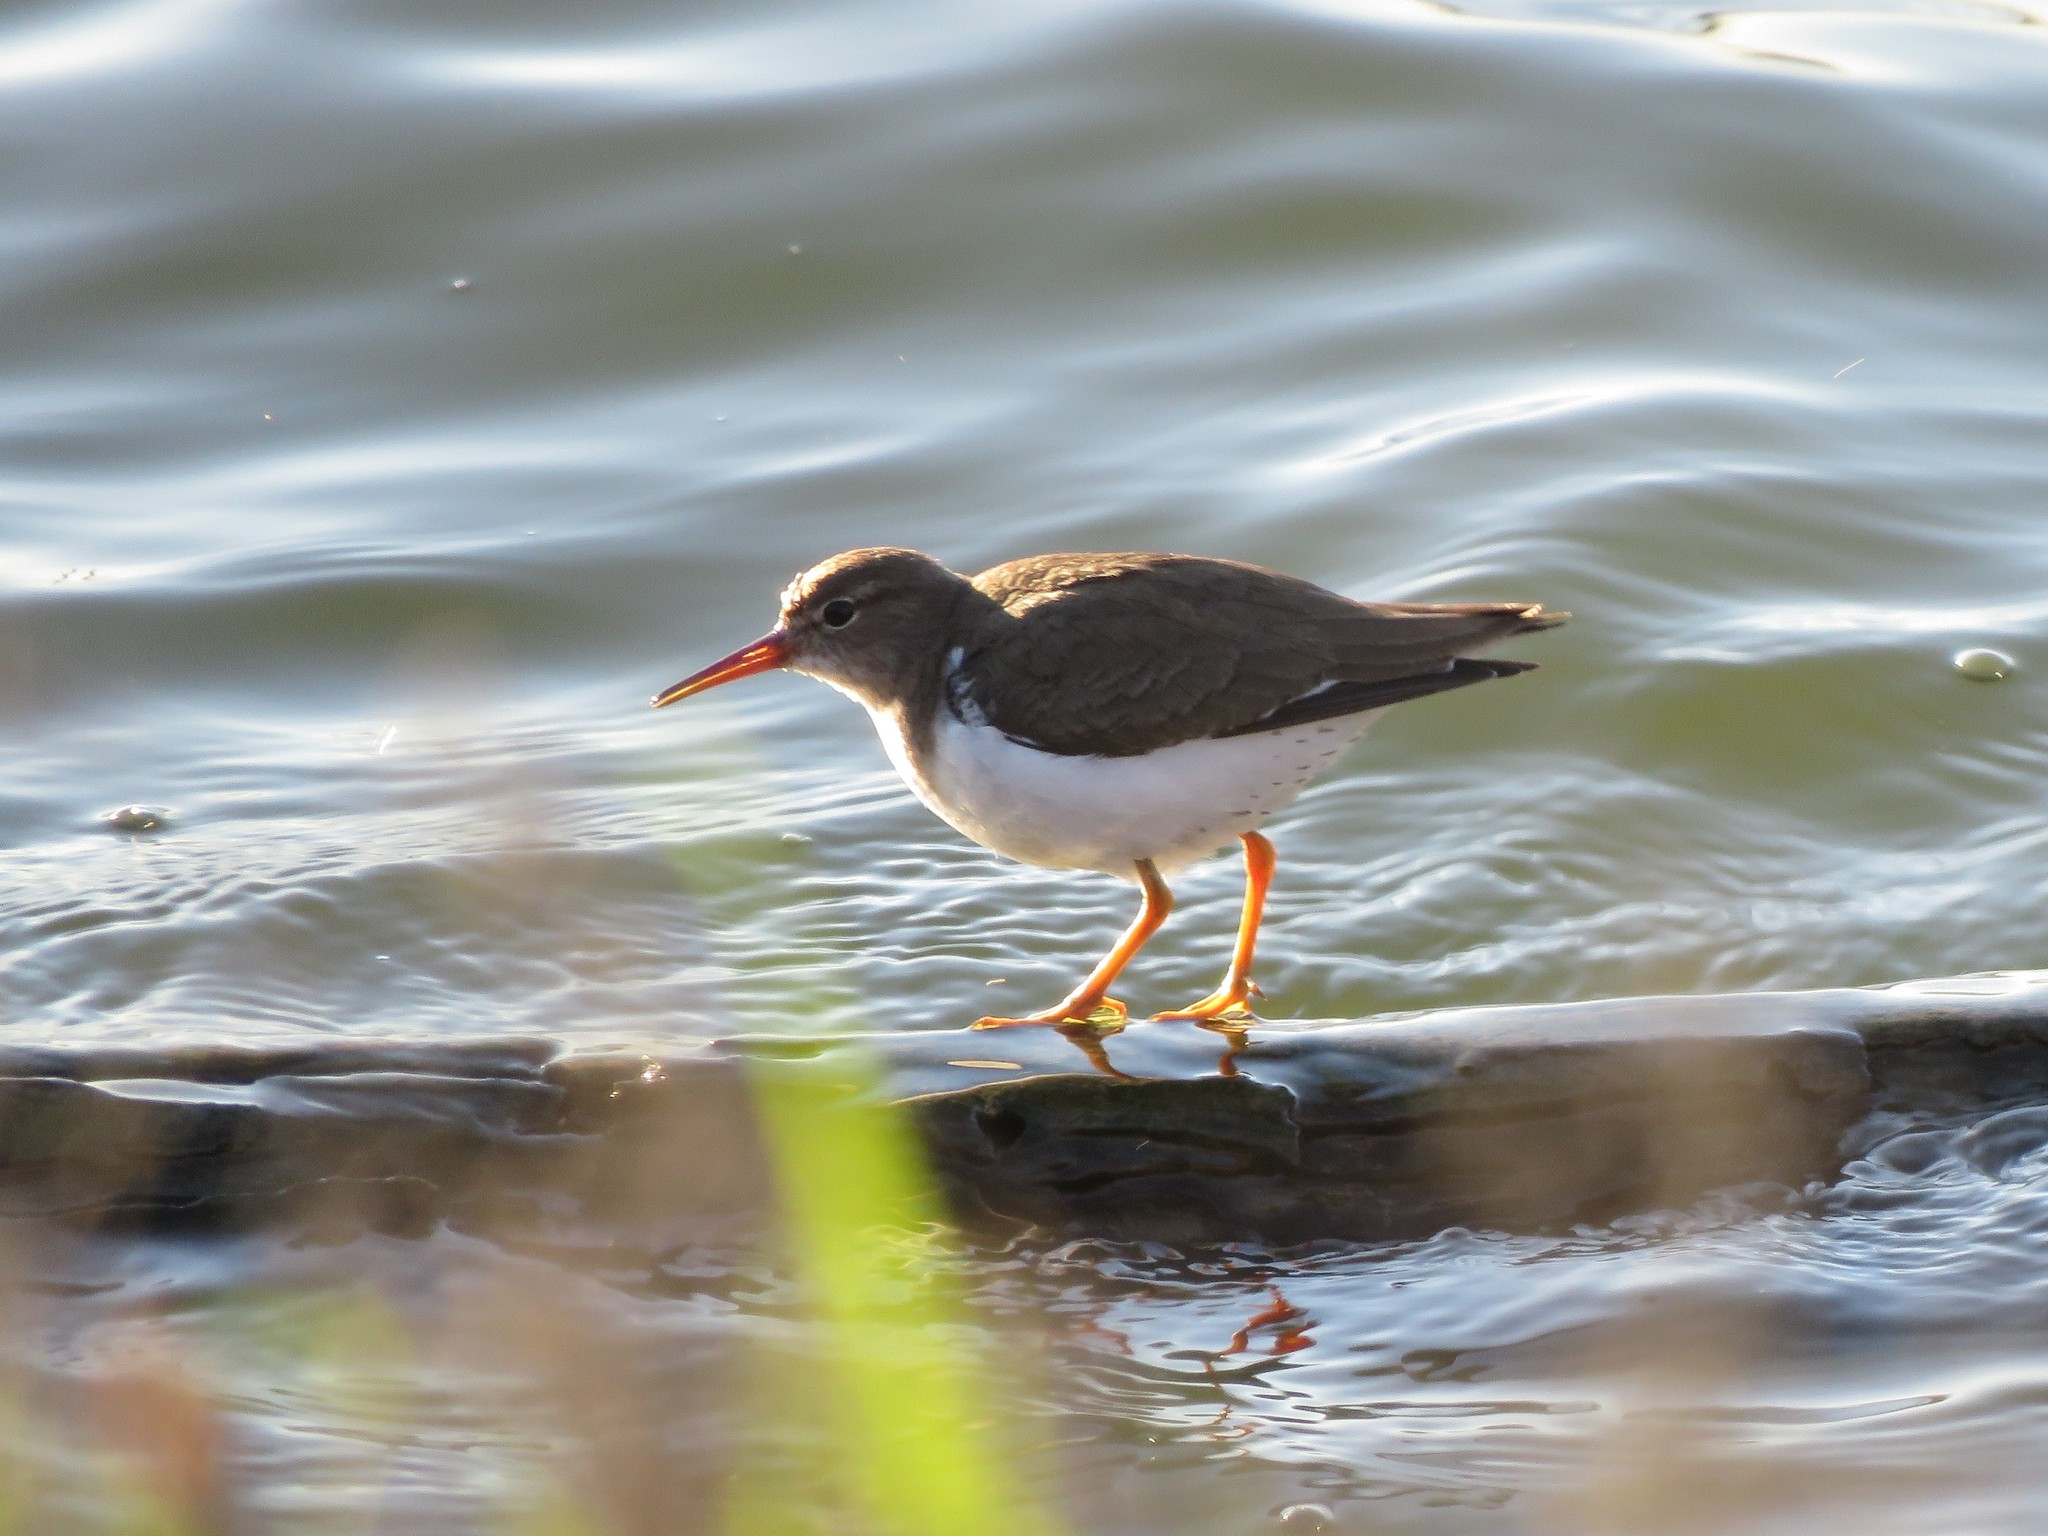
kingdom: Animalia
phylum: Chordata
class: Aves
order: Charadriiformes
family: Scolopacidae
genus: Actitis
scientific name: Actitis macularius
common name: Spotted sandpiper
